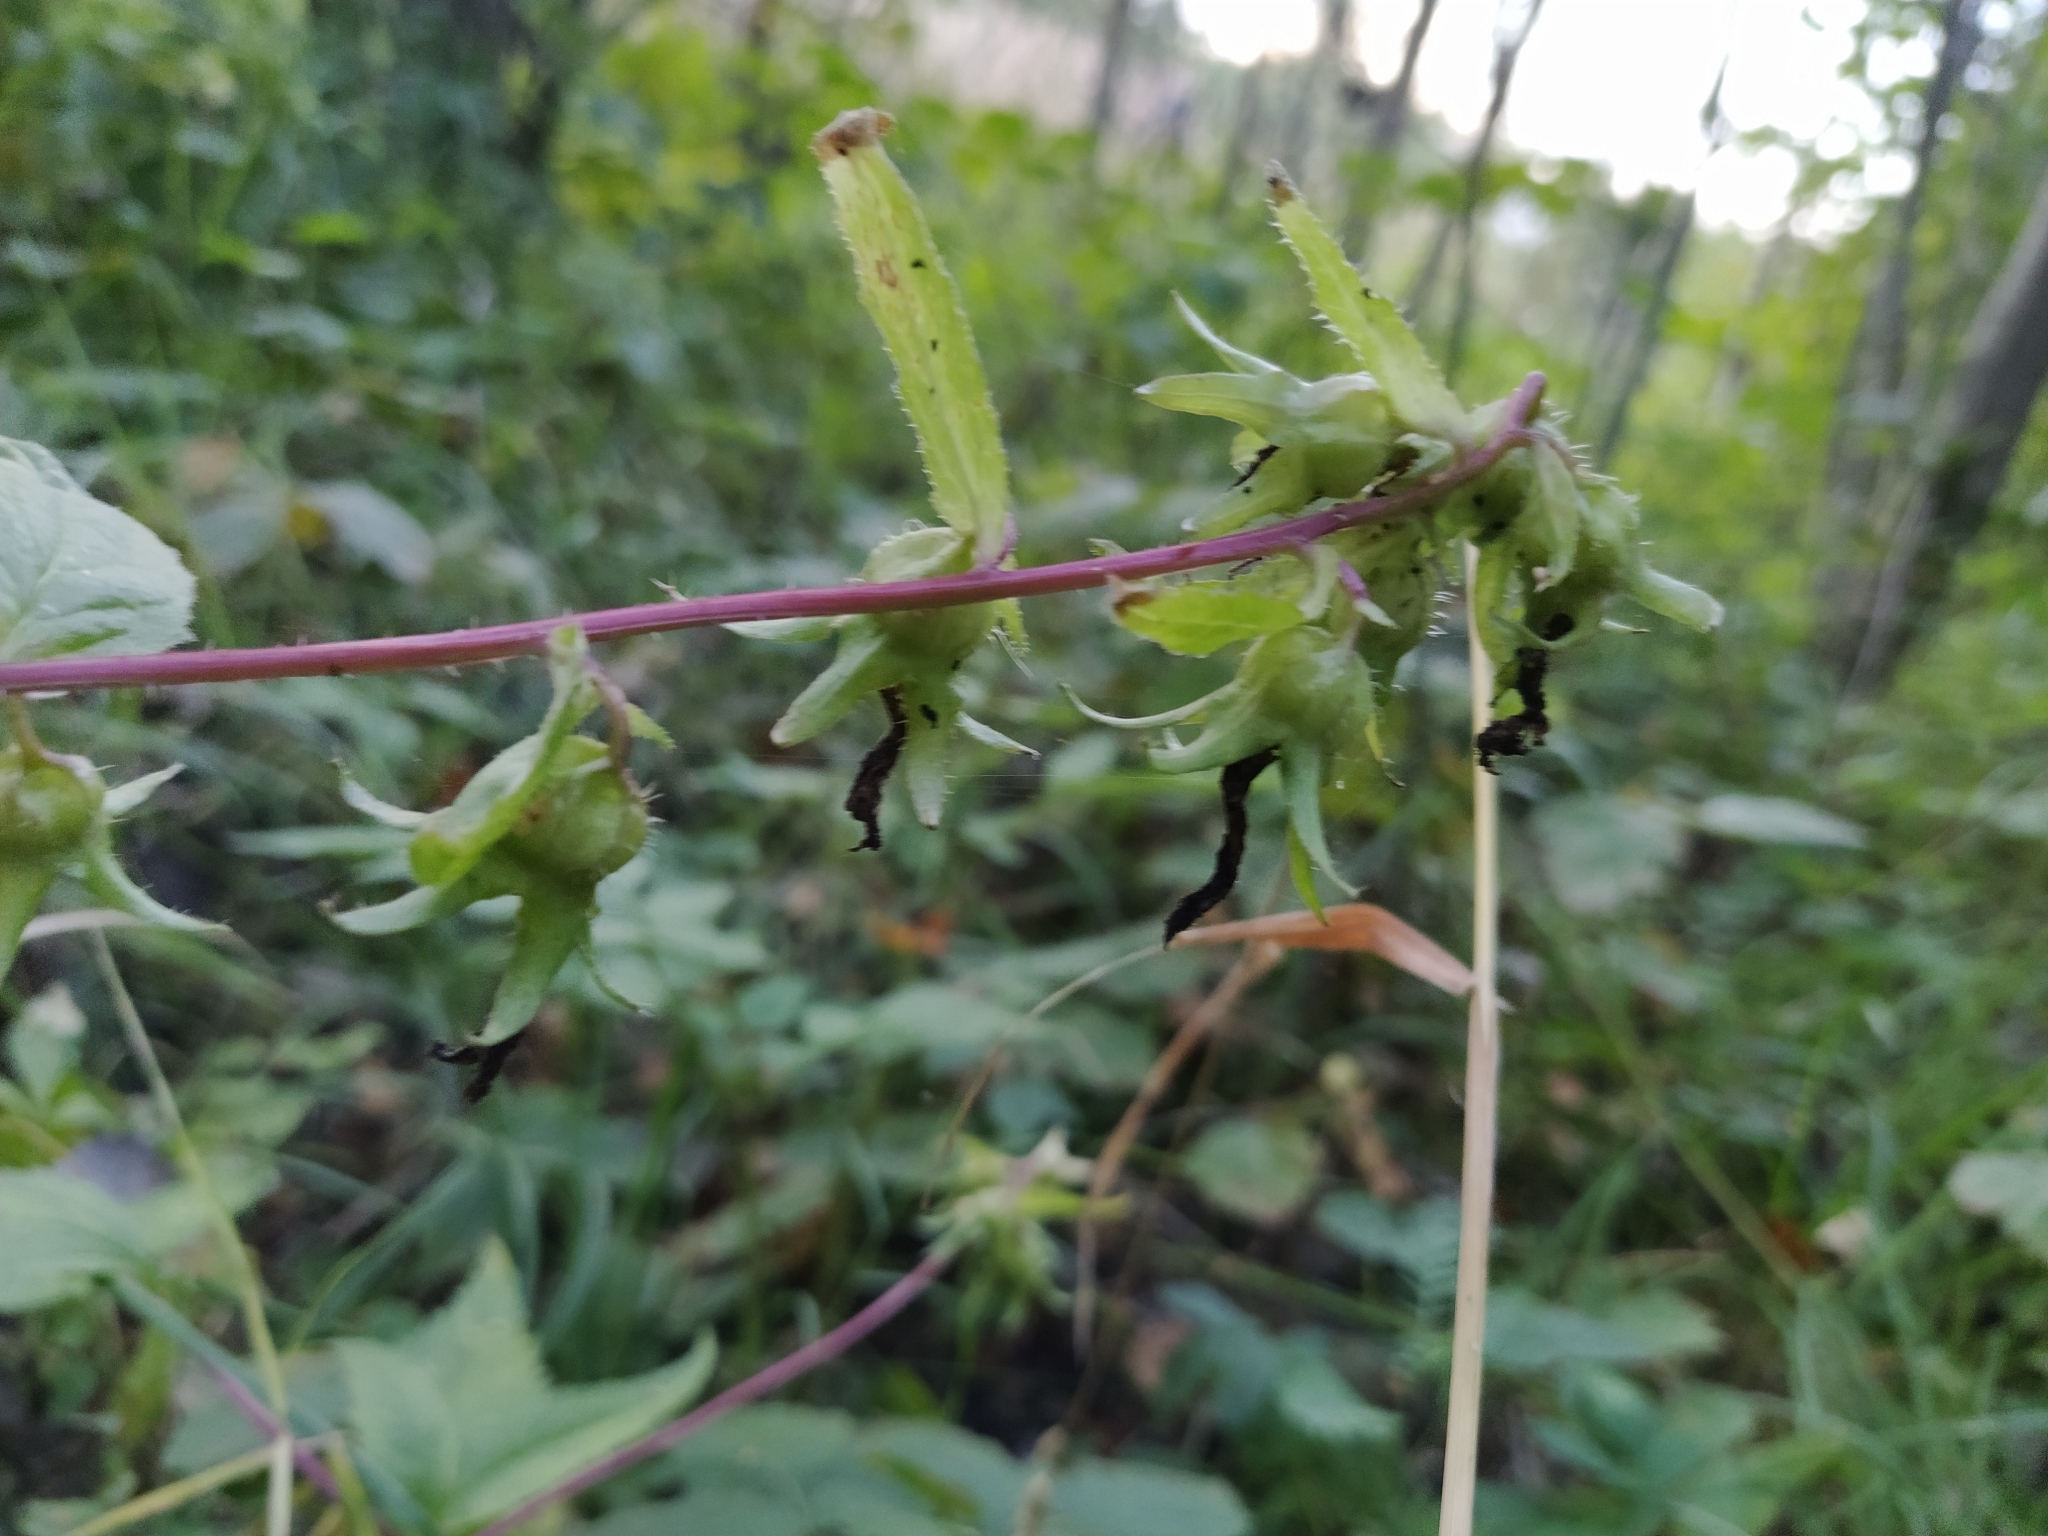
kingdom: Plantae
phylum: Tracheophyta
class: Magnoliopsida
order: Asterales
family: Campanulaceae
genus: Campanula
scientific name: Campanula trachelium
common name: Nettle-leaved bellflower
